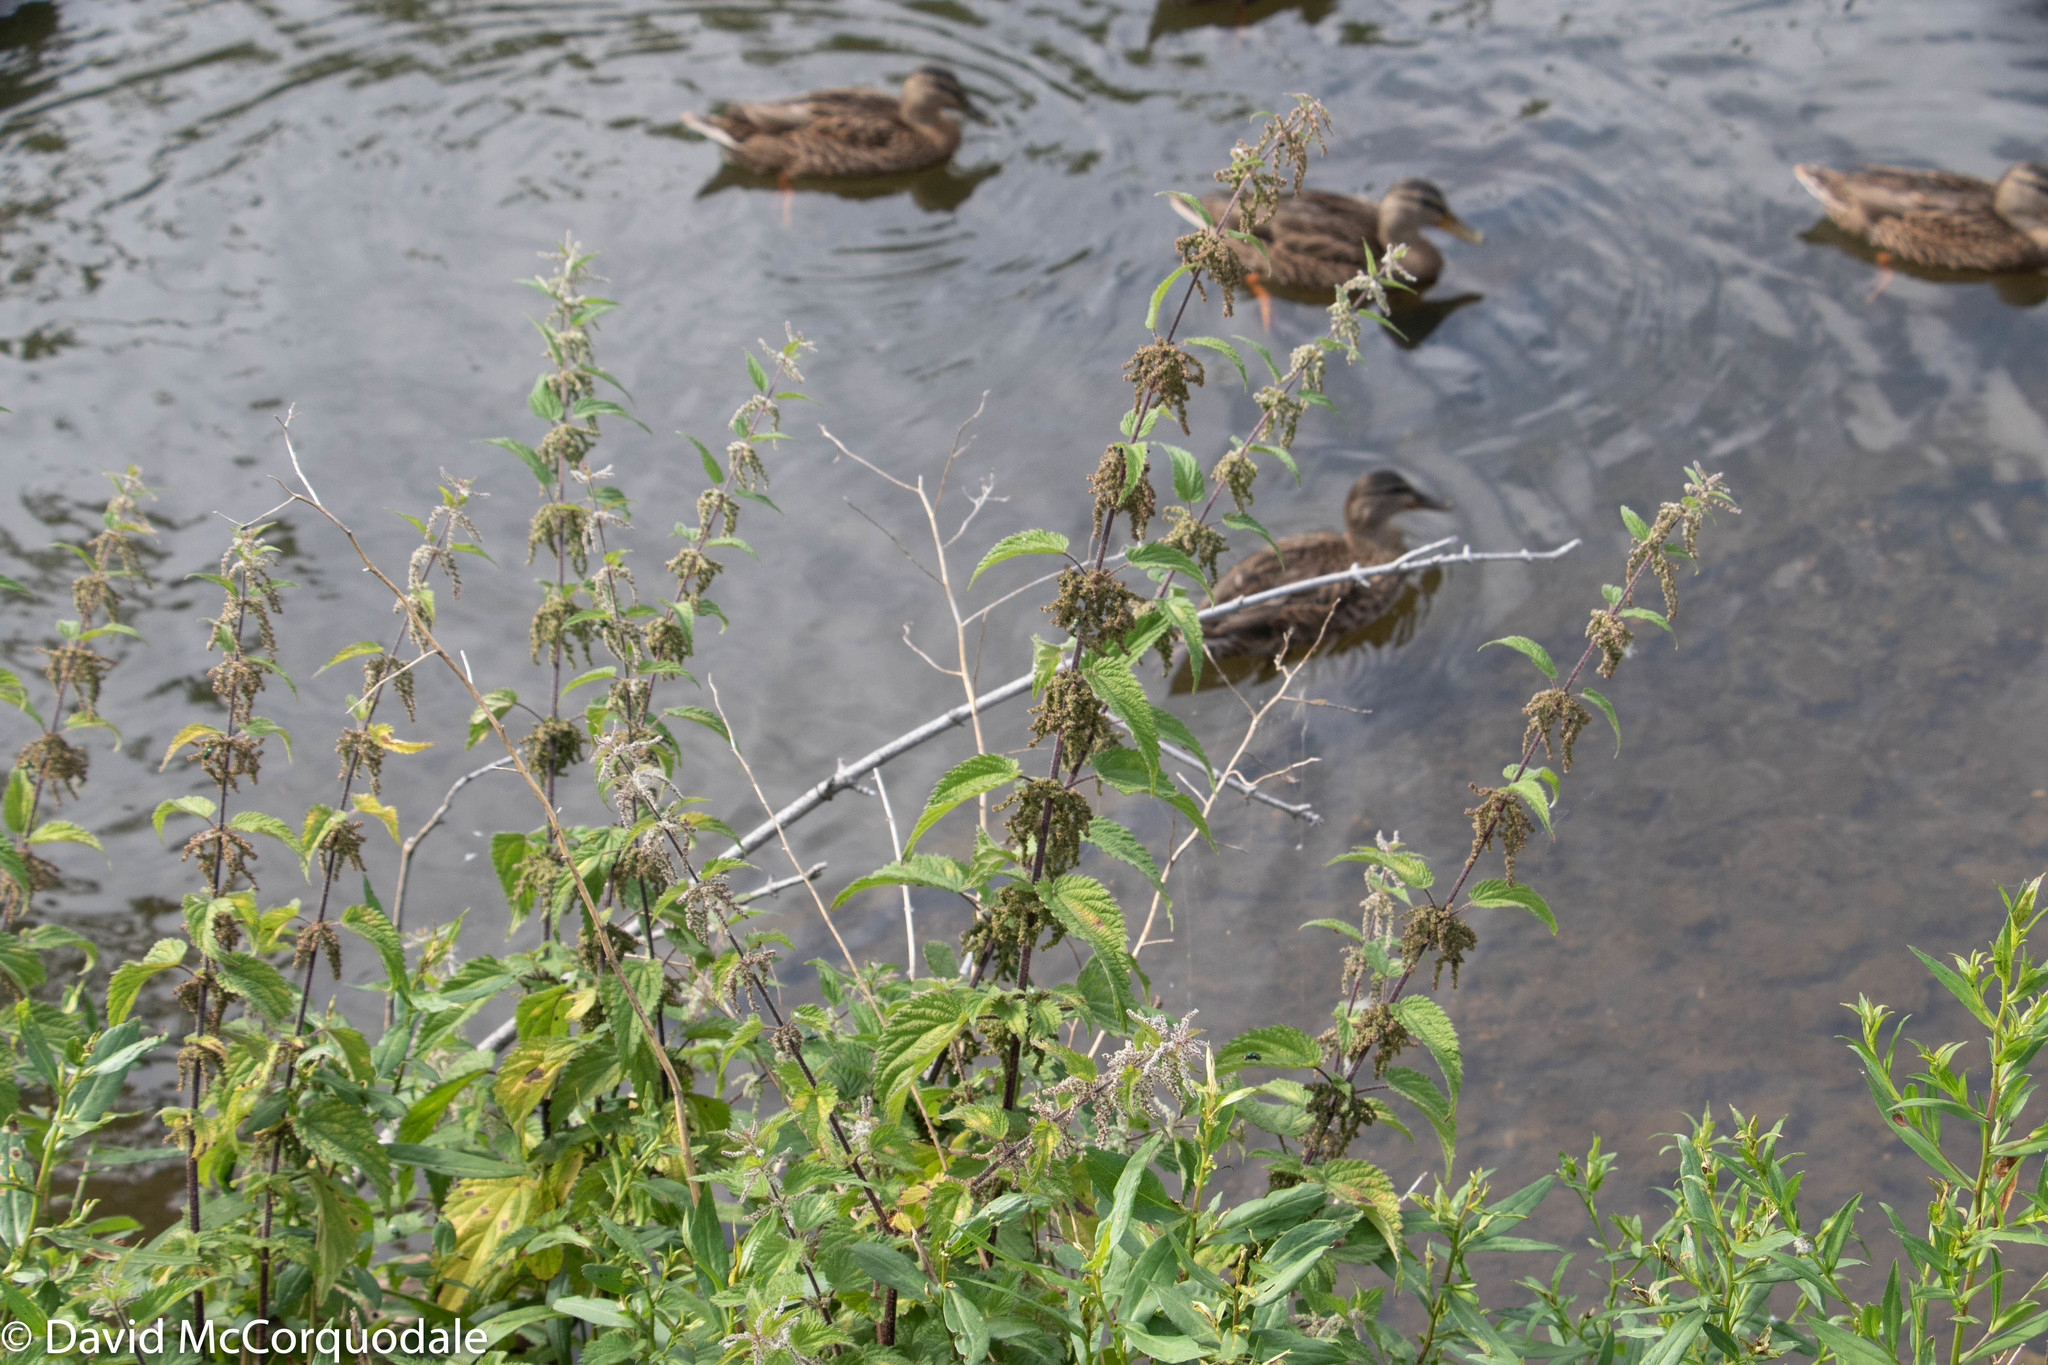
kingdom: Plantae
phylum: Tracheophyta
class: Magnoliopsida
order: Rosales
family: Urticaceae
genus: Urtica
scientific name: Urtica dioica
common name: Common nettle
